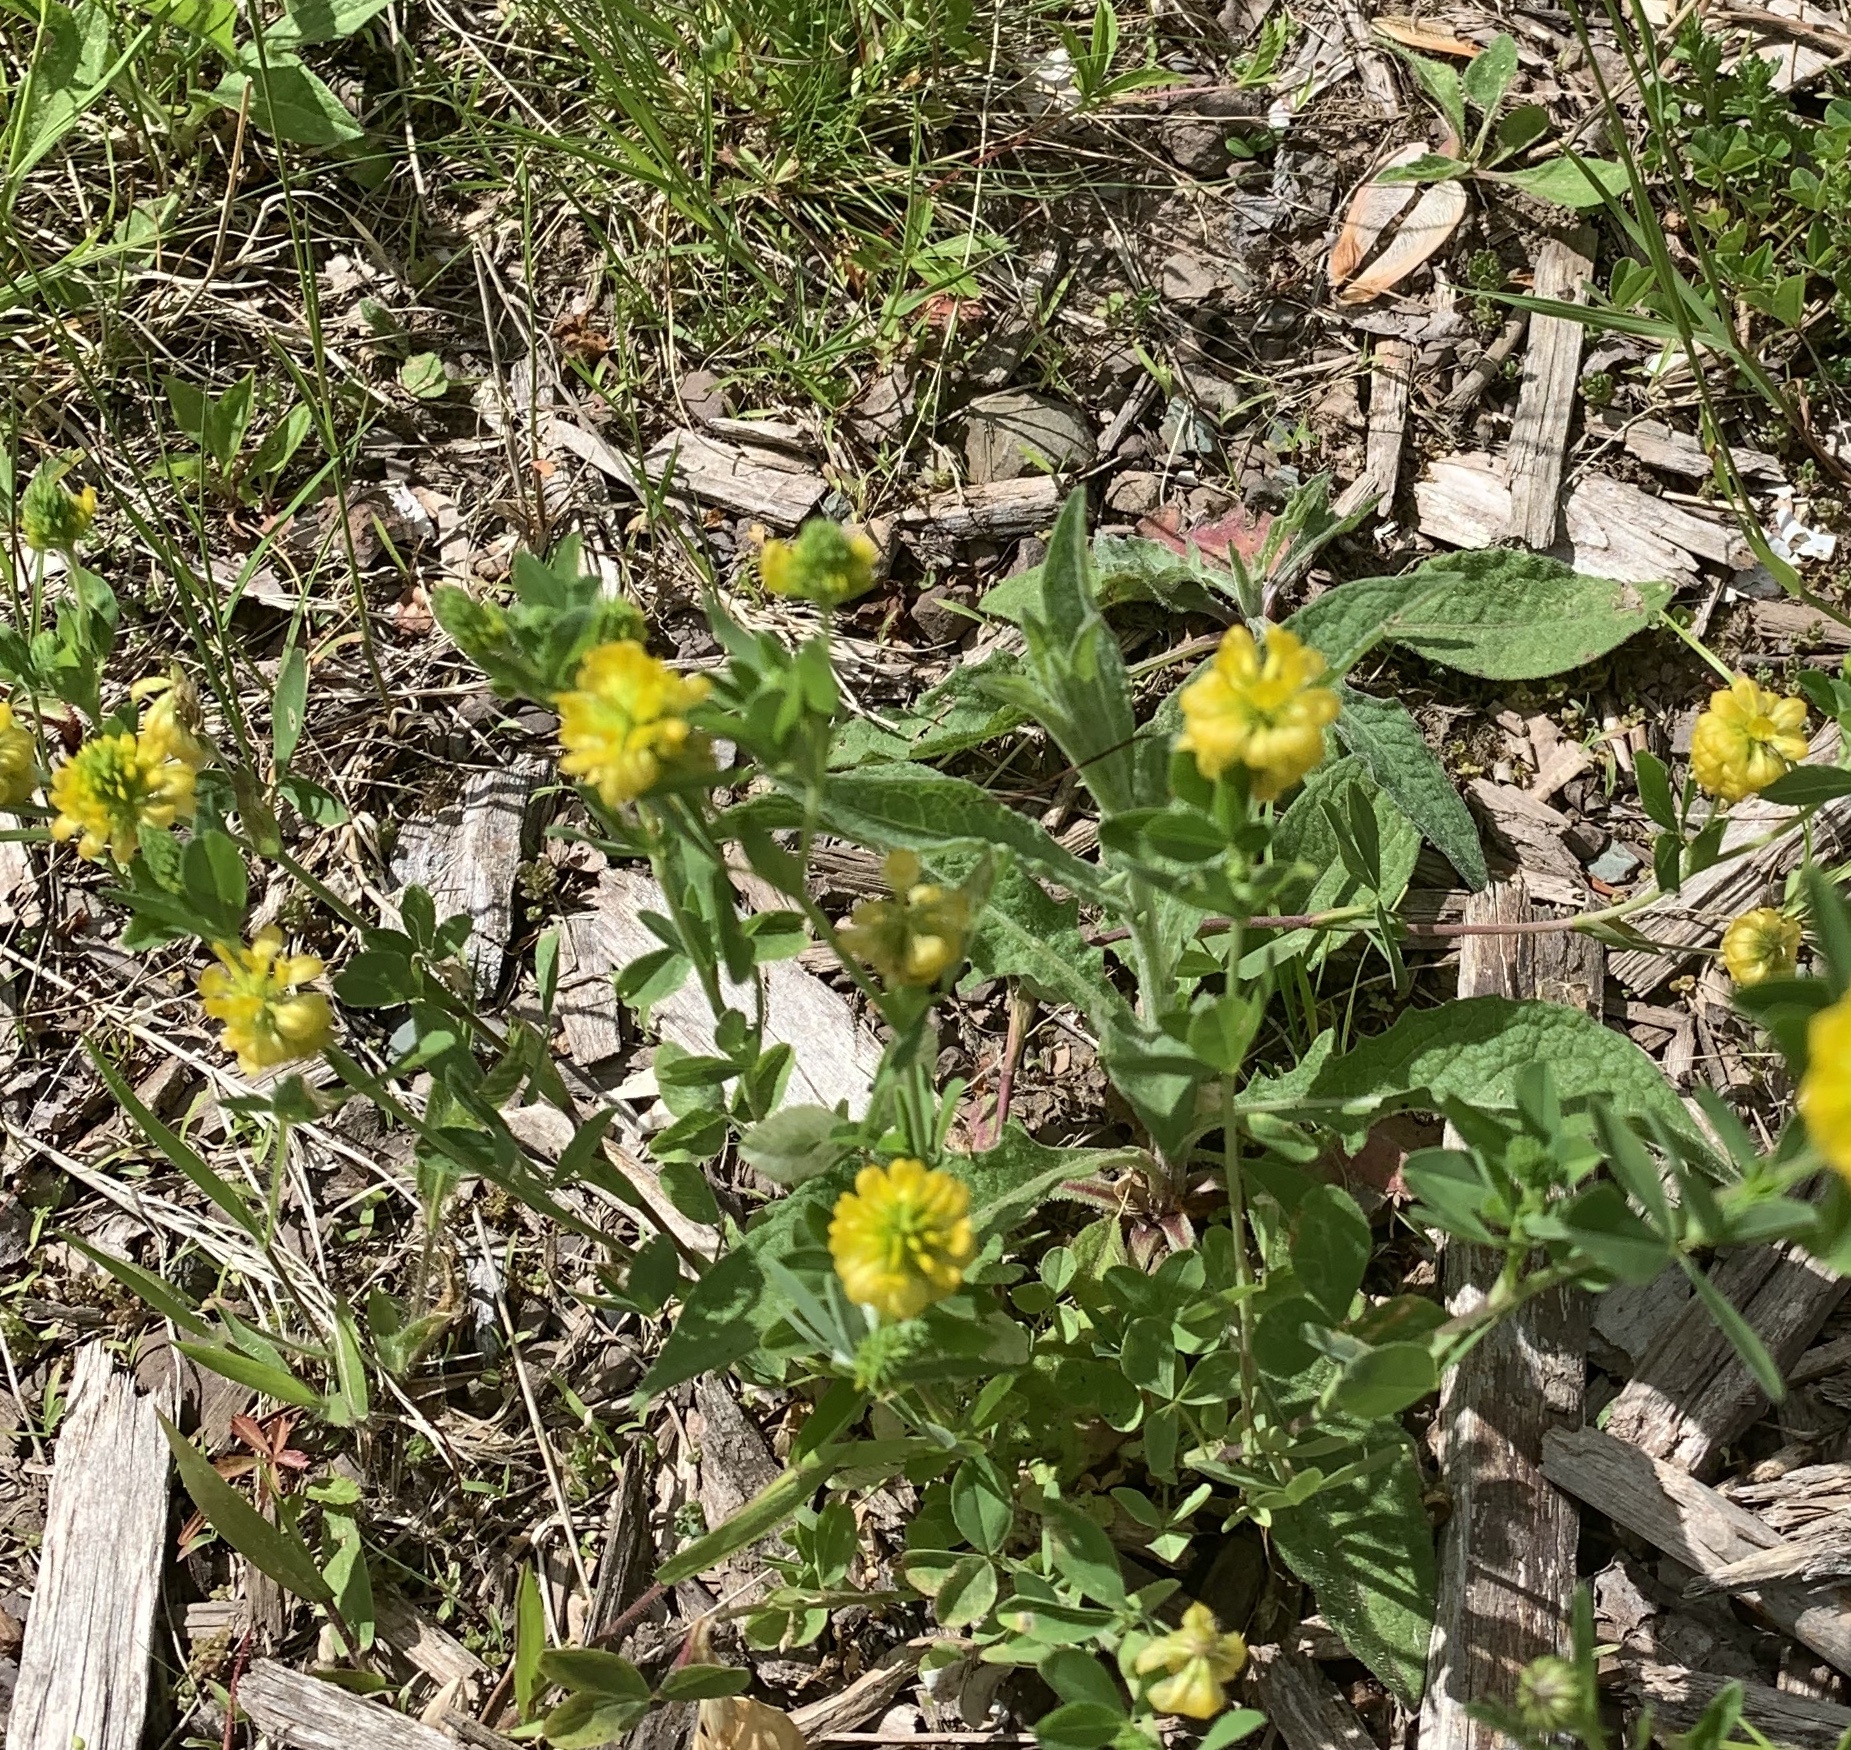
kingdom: Plantae
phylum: Tracheophyta
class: Magnoliopsida
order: Fabales
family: Fabaceae
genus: Trifolium
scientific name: Trifolium aureum
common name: Golden clover
